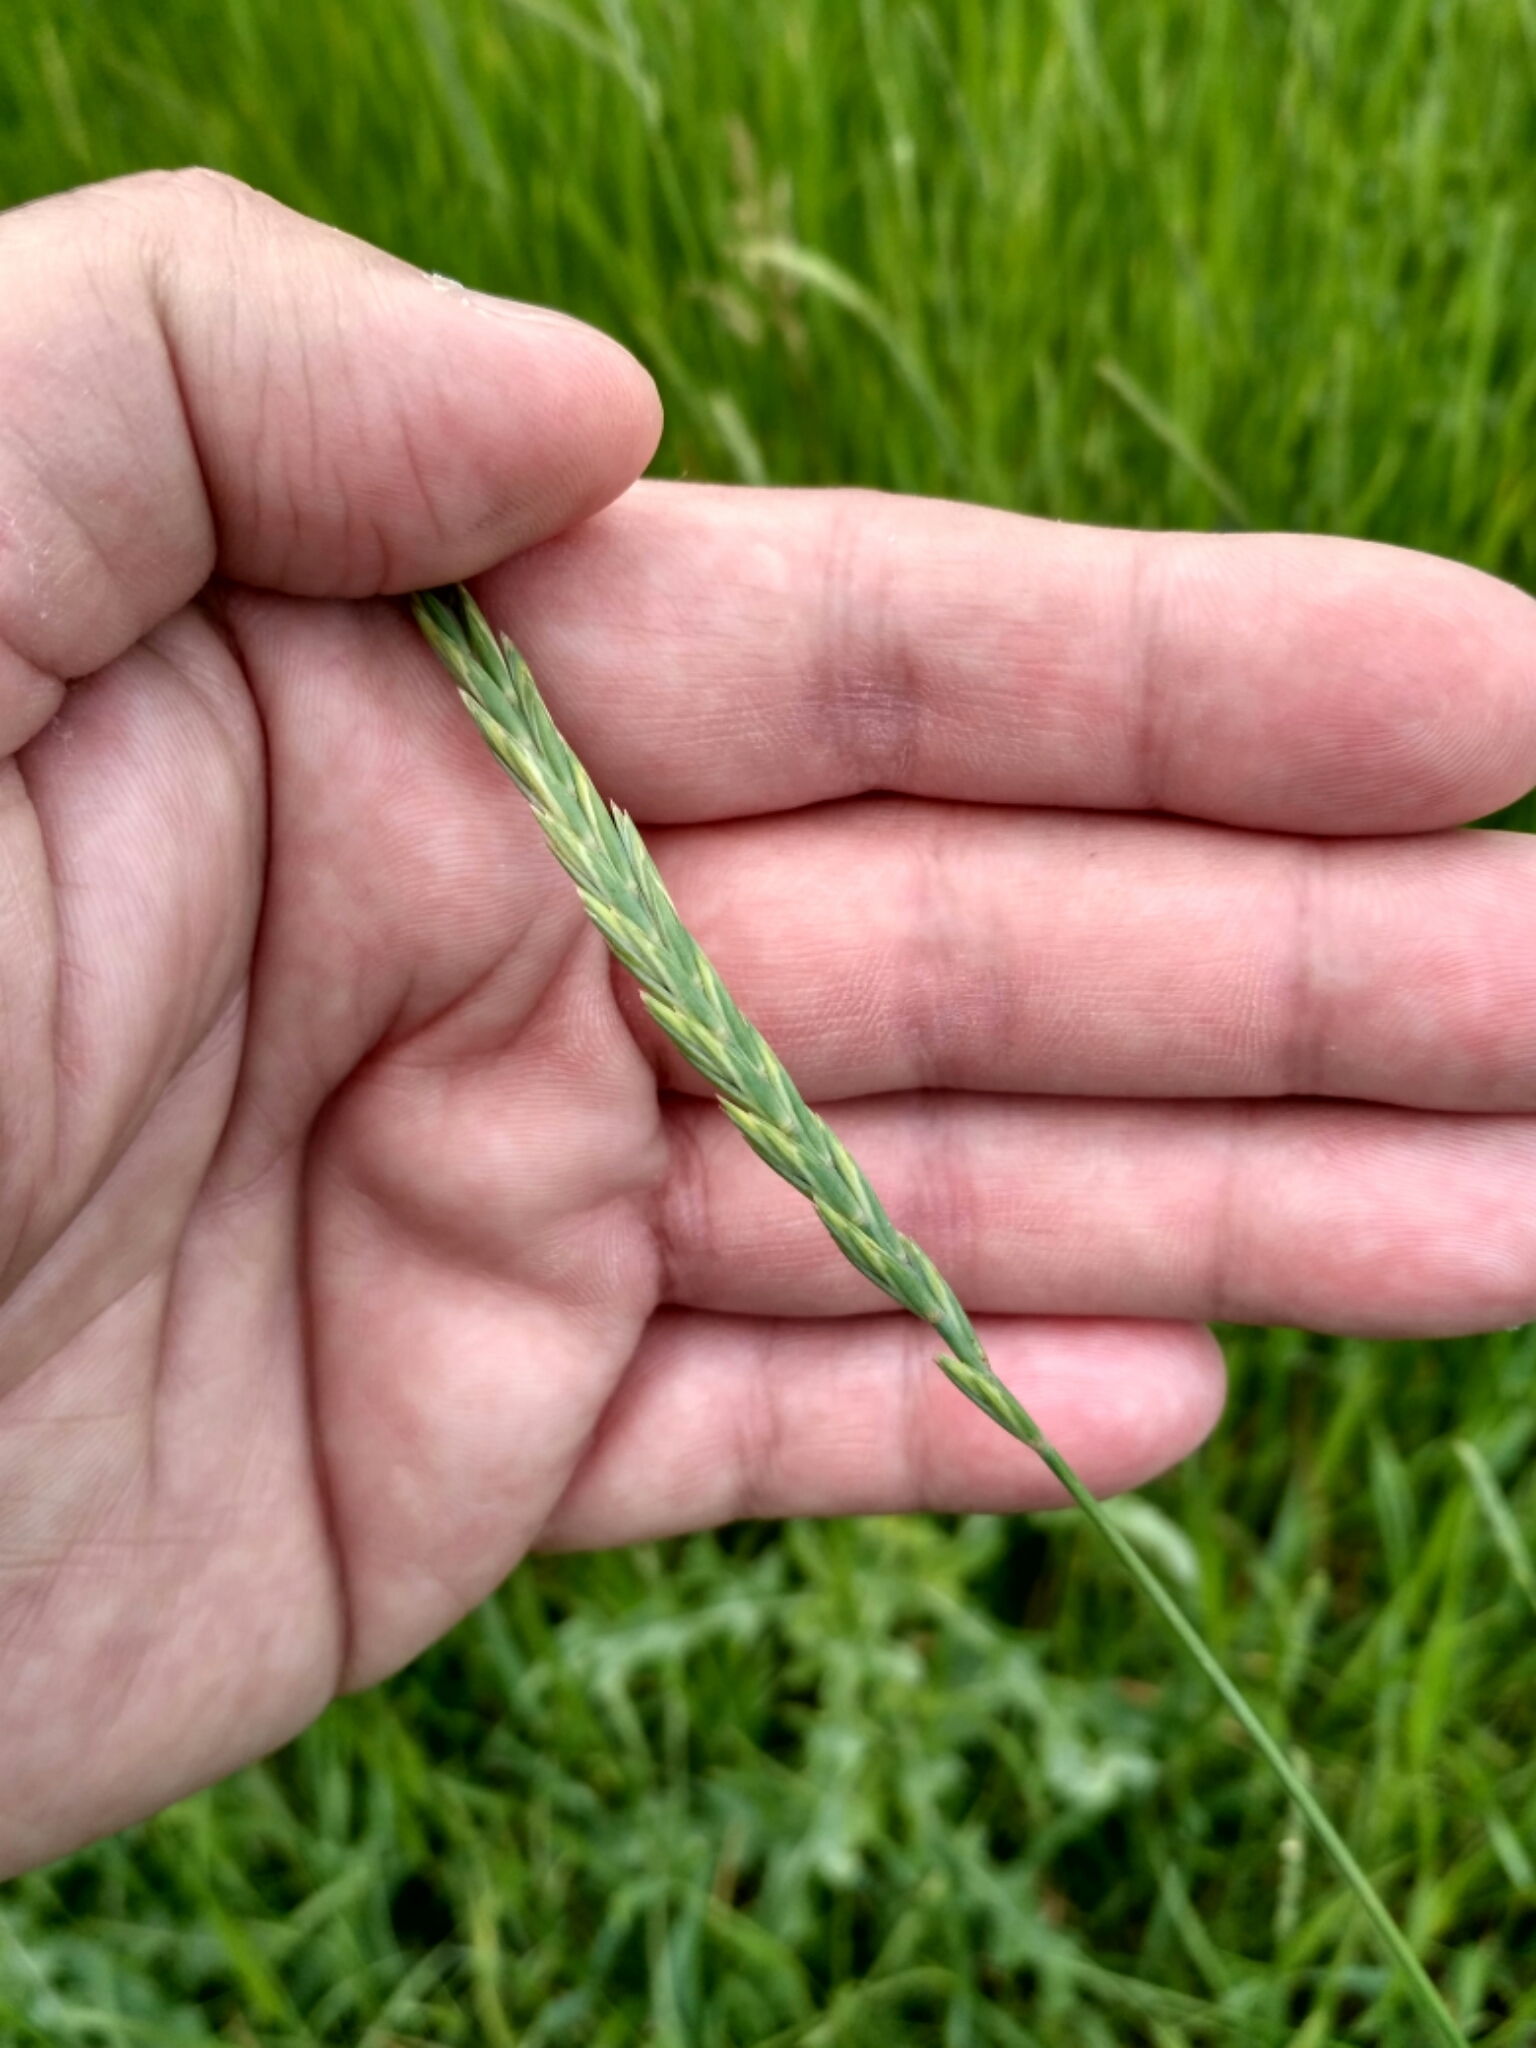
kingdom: Plantae
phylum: Tracheophyta
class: Liliopsida
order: Poales
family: Poaceae
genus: Elymus
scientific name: Elymus repens
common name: Quackgrass
